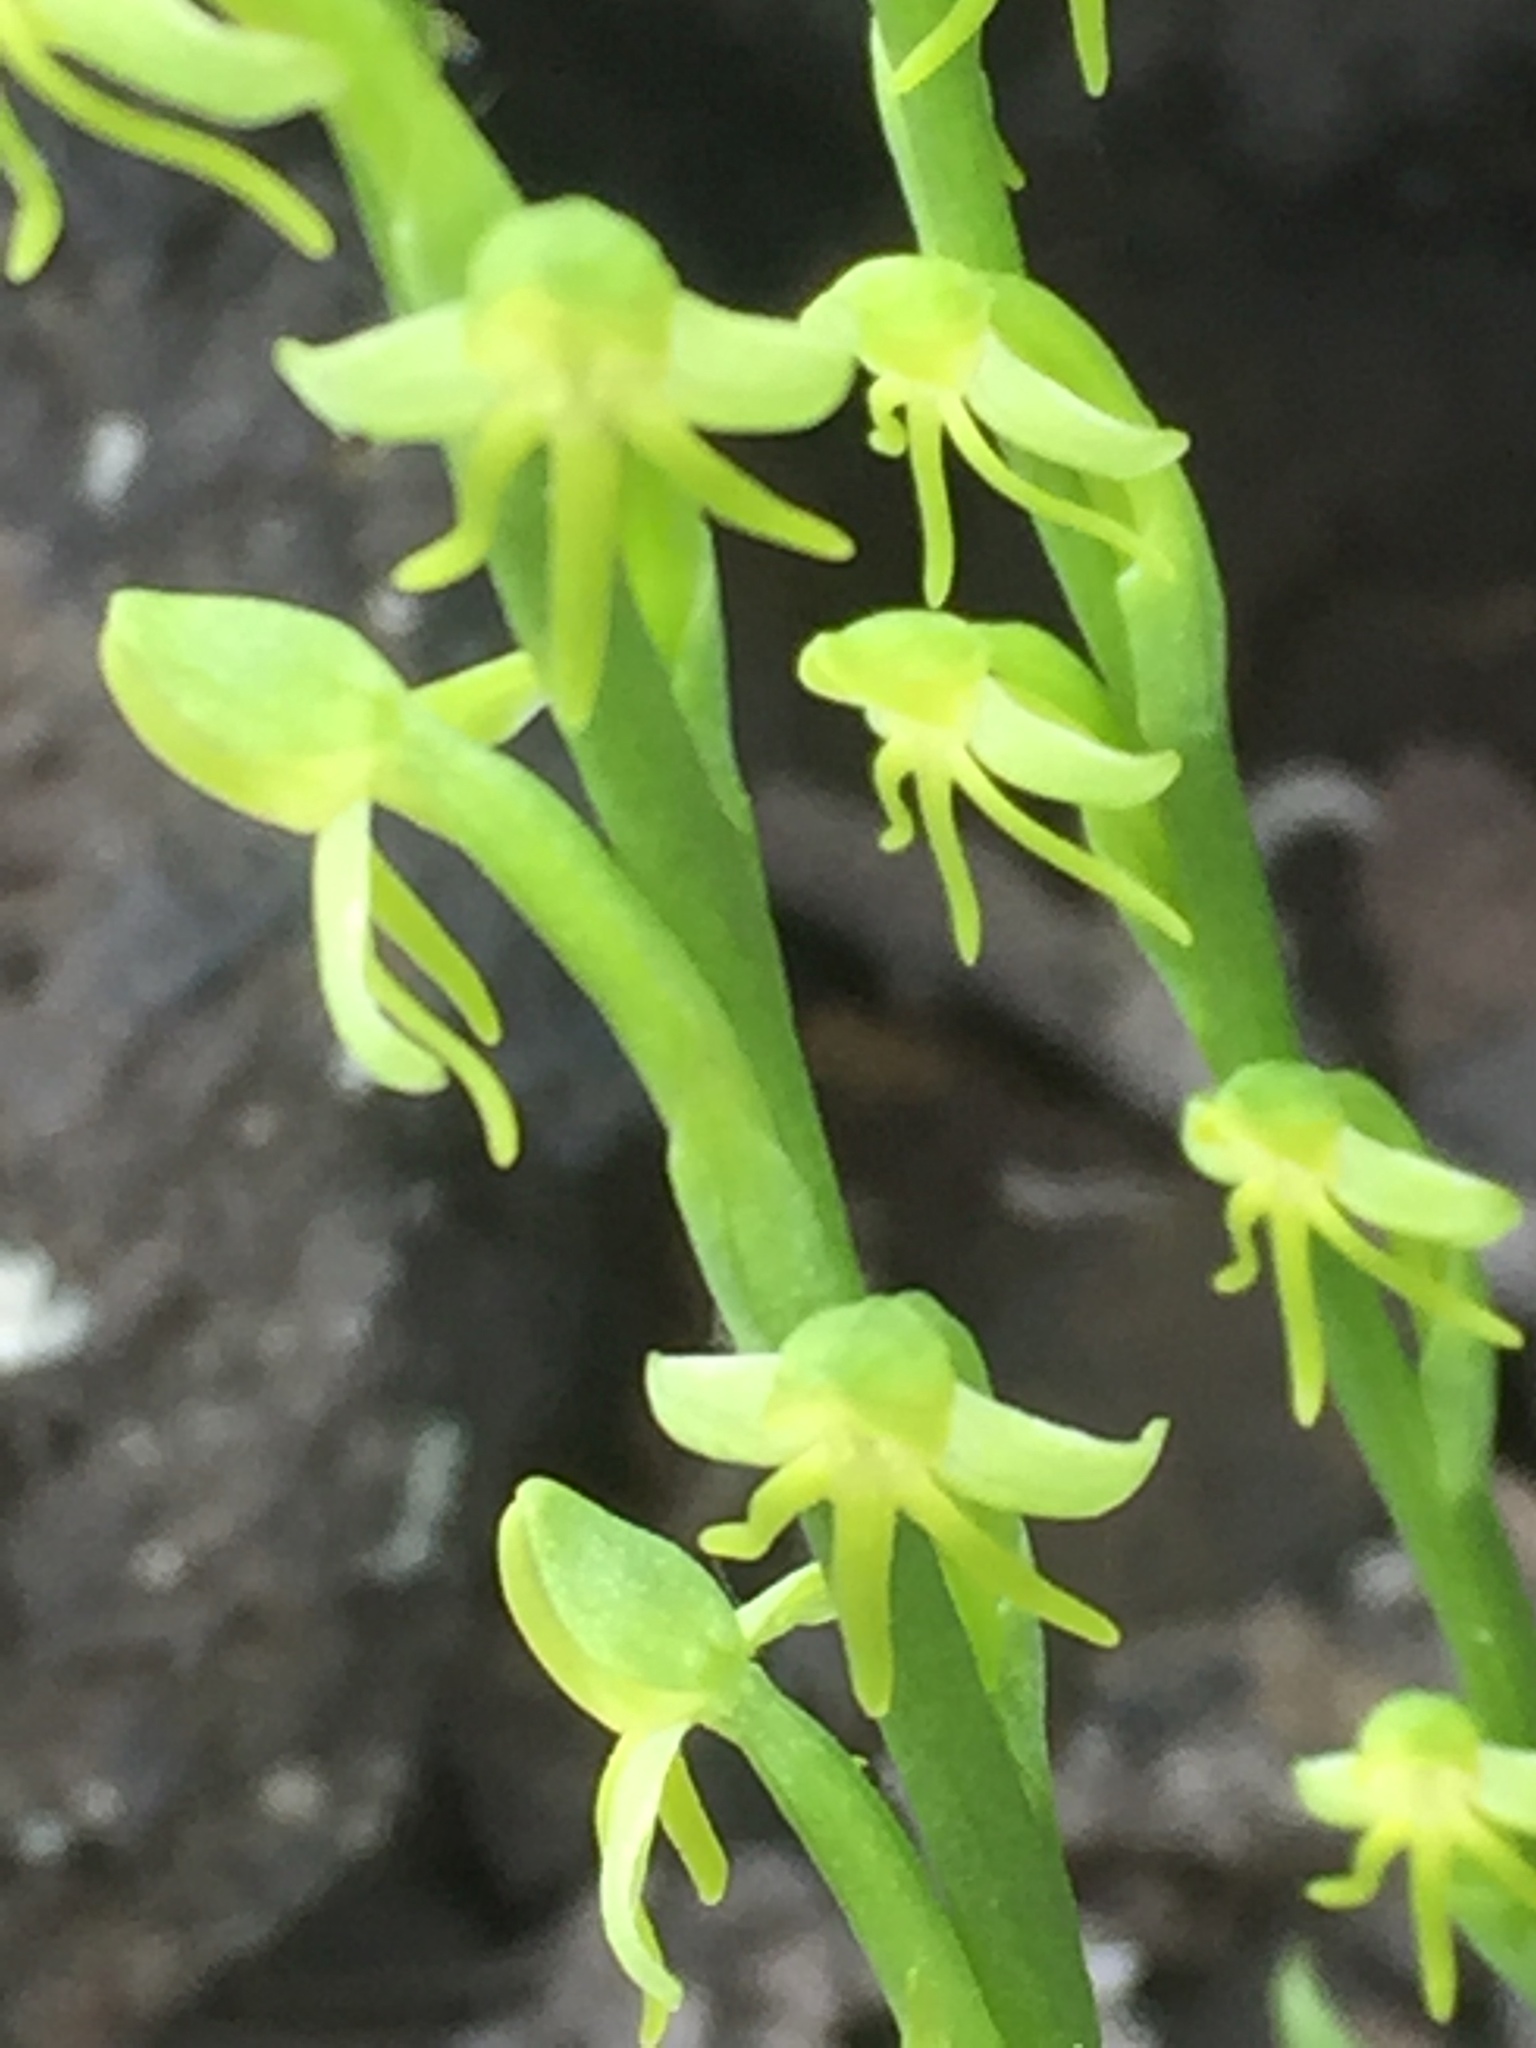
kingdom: Plantae
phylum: Tracheophyta
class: Liliopsida
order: Asparagales
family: Orchidaceae
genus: Habenaria
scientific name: Habenaria tridactylites
